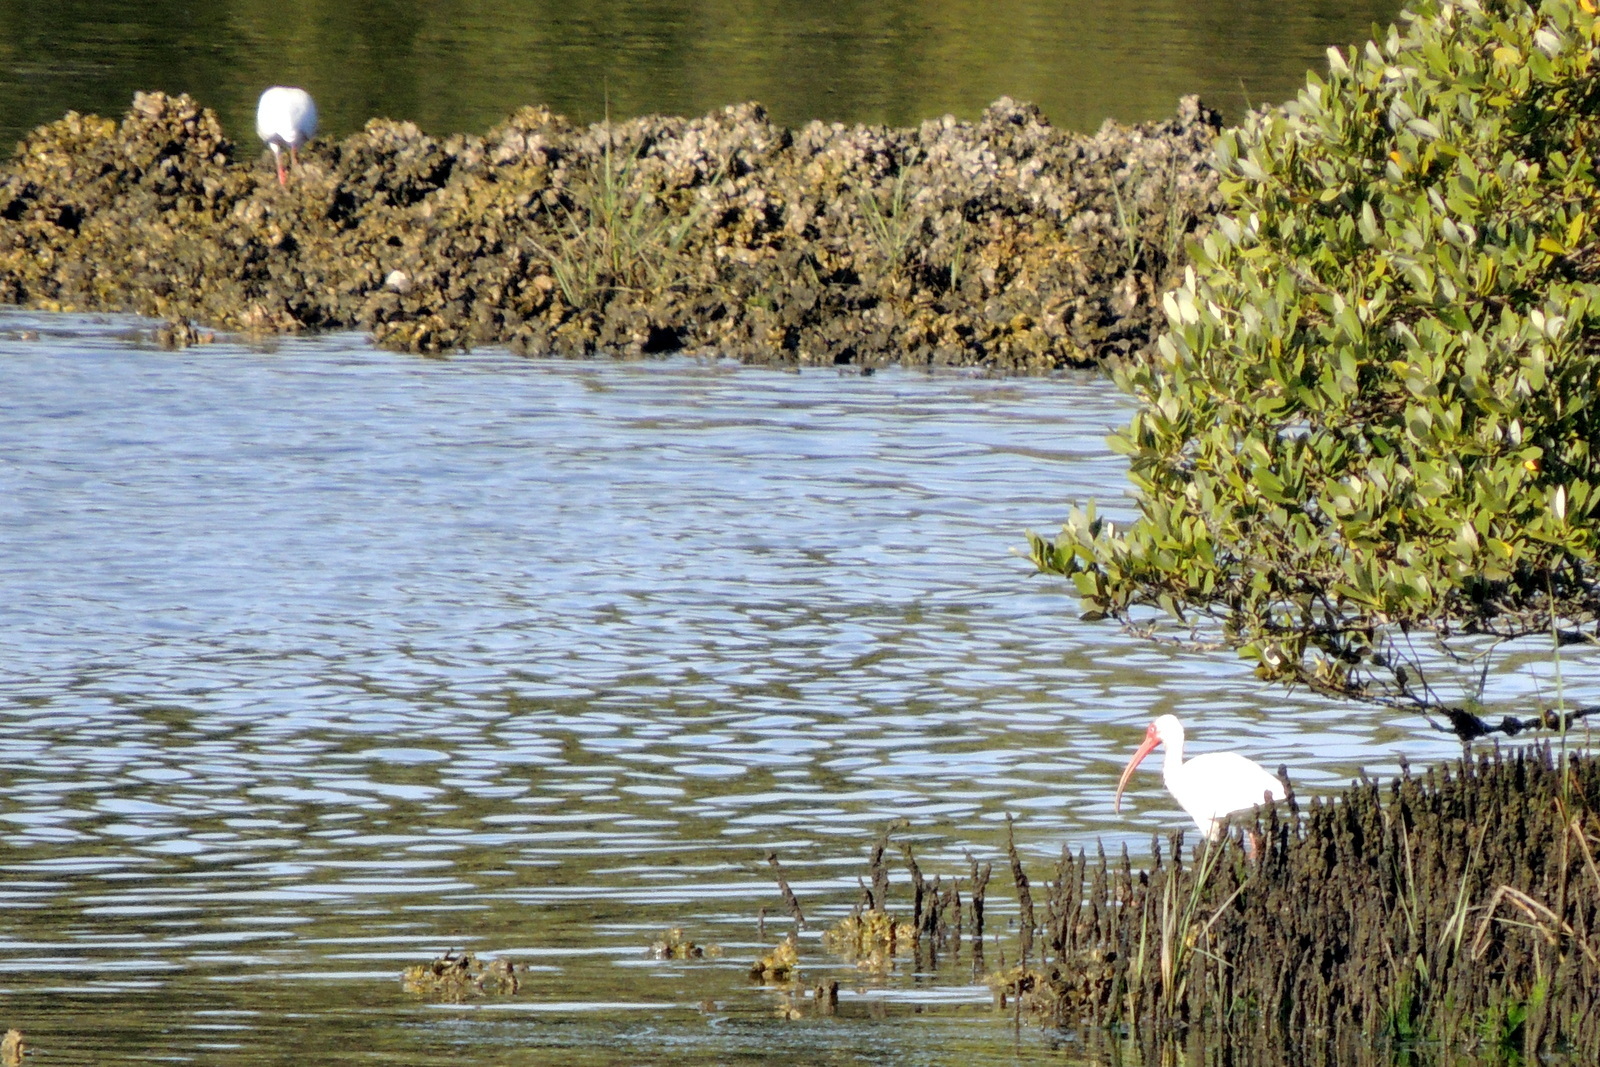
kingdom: Animalia
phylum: Chordata
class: Aves
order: Pelecaniformes
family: Threskiornithidae
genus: Eudocimus
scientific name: Eudocimus albus
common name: White ibis
